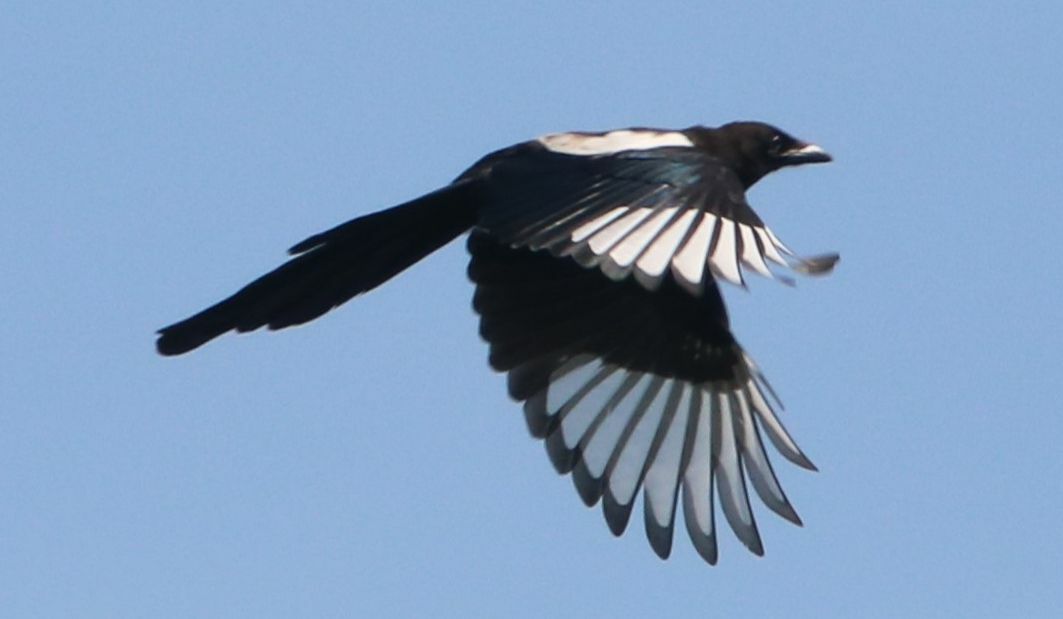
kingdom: Animalia
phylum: Chordata
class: Aves
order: Passeriformes
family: Corvidae
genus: Pica
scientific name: Pica hudsonia
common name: Black-billed magpie
